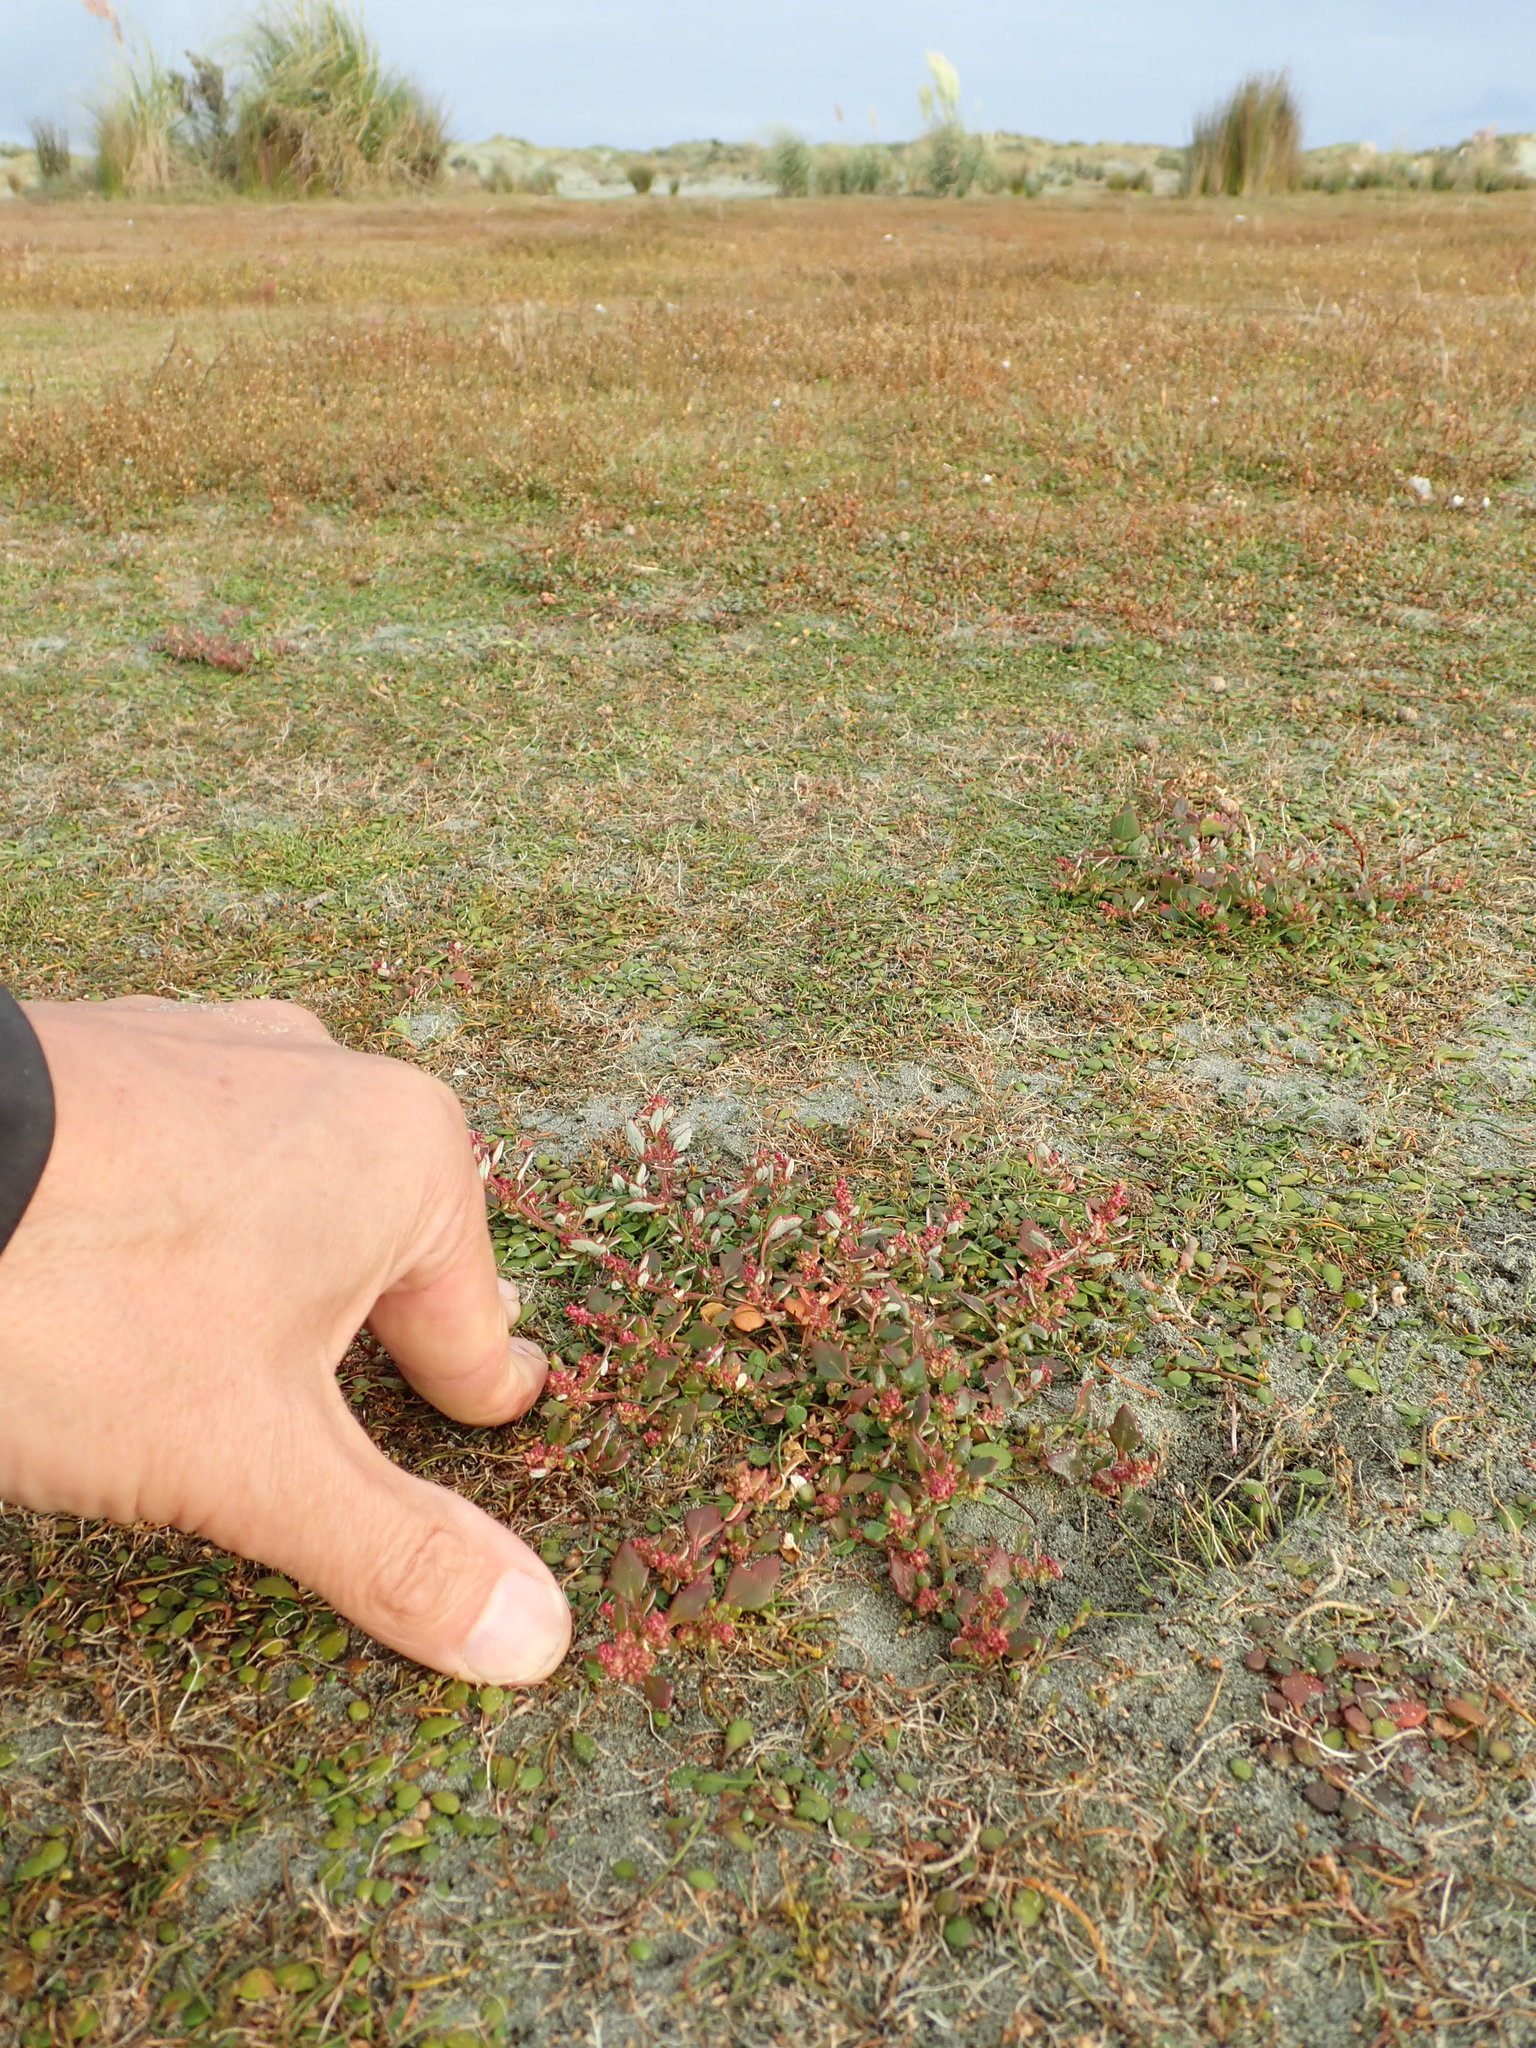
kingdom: Plantae
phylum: Tracheophyta
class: Magnoliopsida
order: Caryophyllales
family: Amaranthaceae
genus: Oxybasis
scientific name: Oxybasis ambigua
